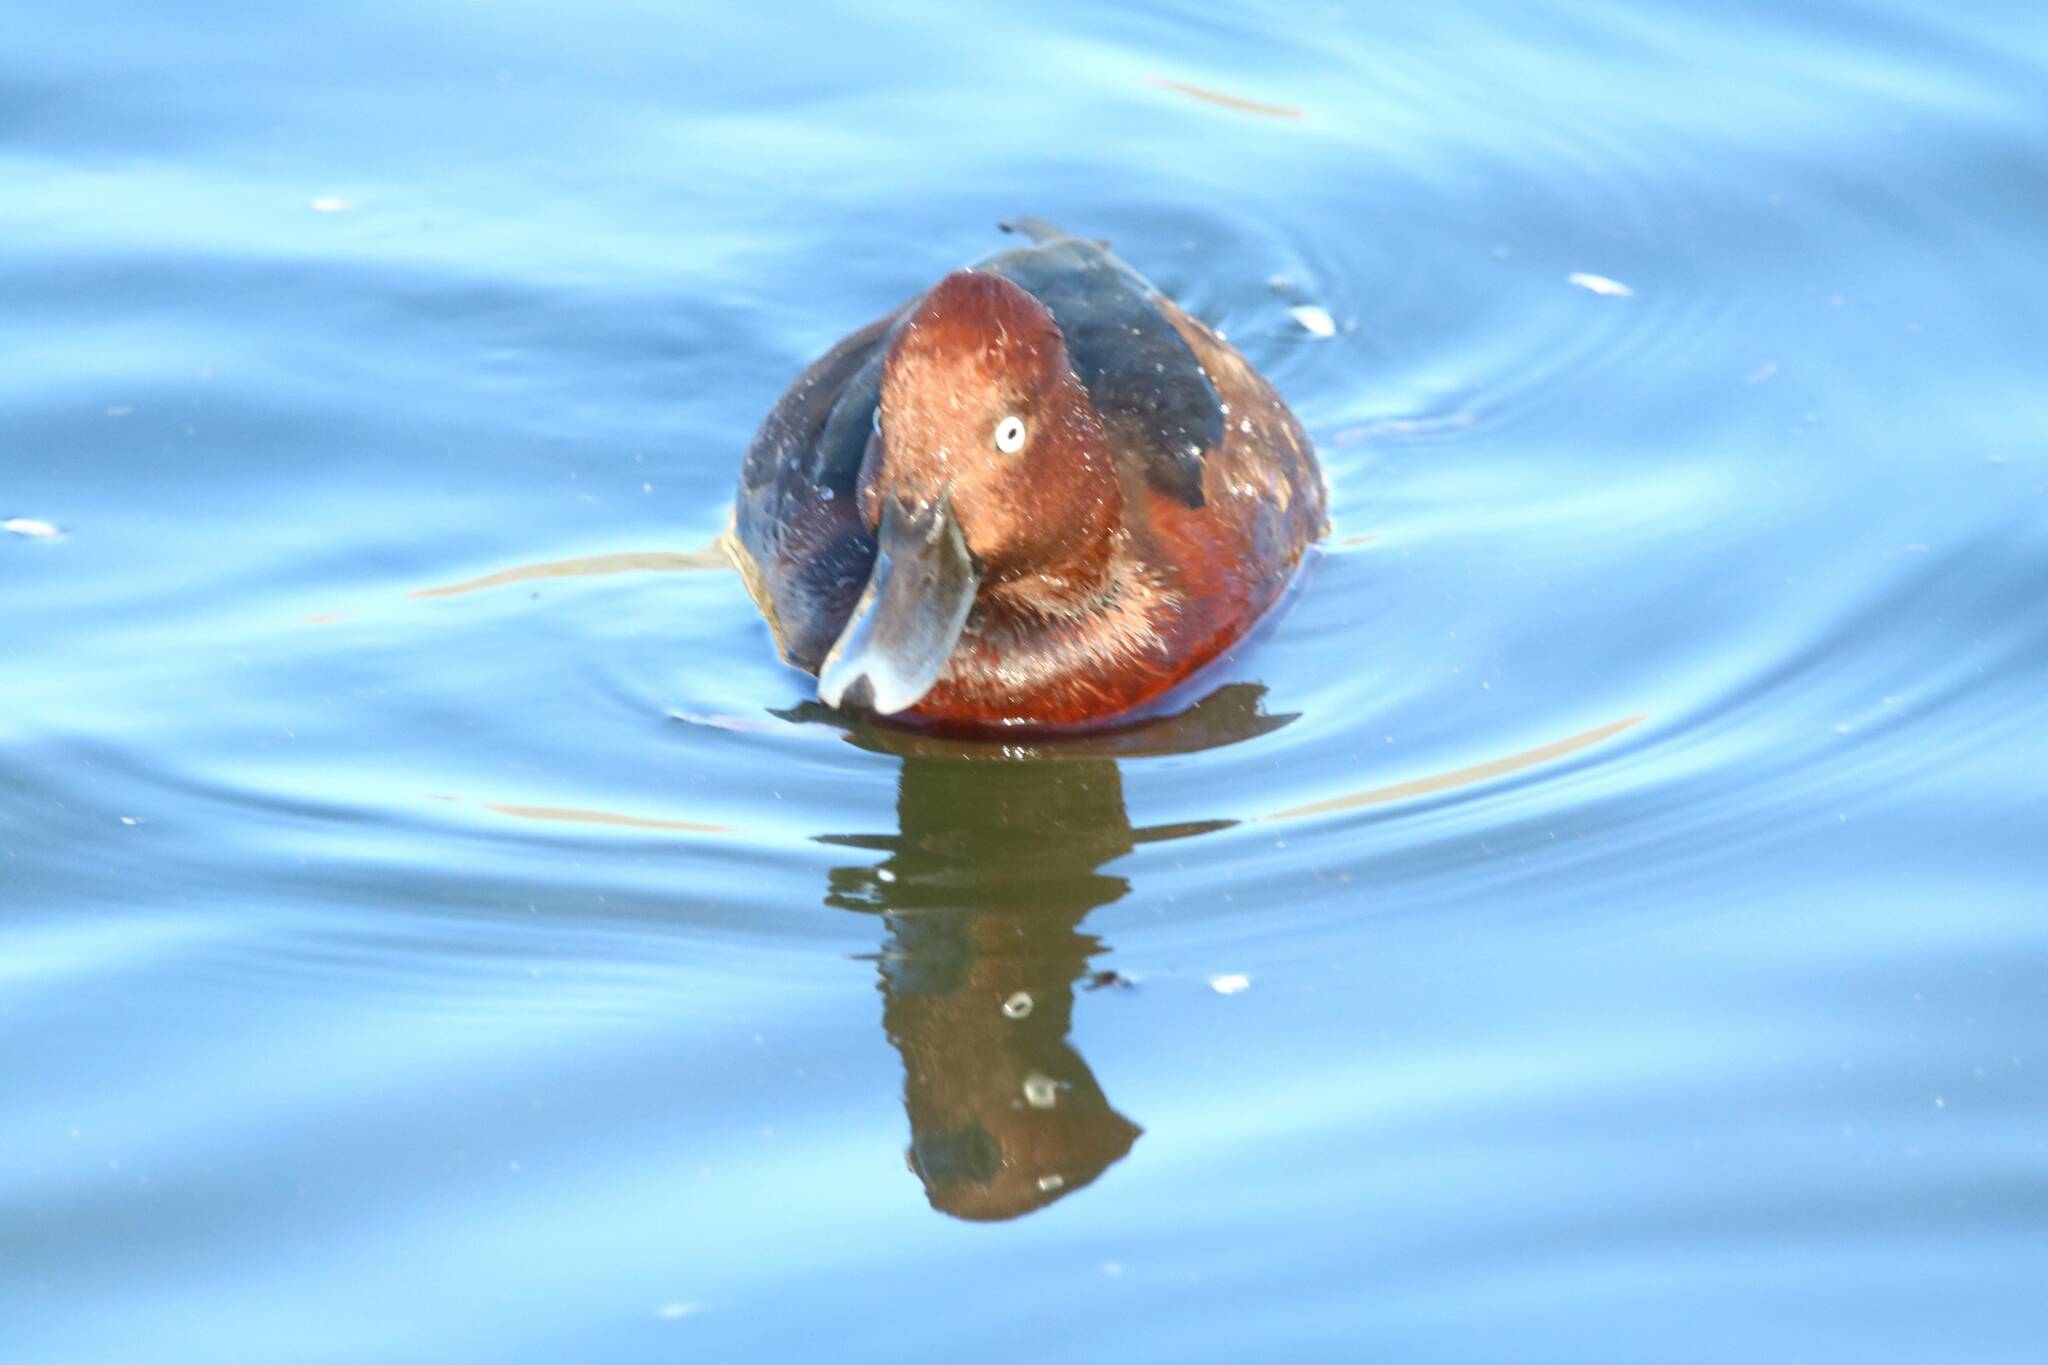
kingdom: Animalia
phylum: Chordata
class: Aves
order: Anseriformes
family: Anatidae
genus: Aythya
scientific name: Aythya nyroca
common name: Ferruginous duck
